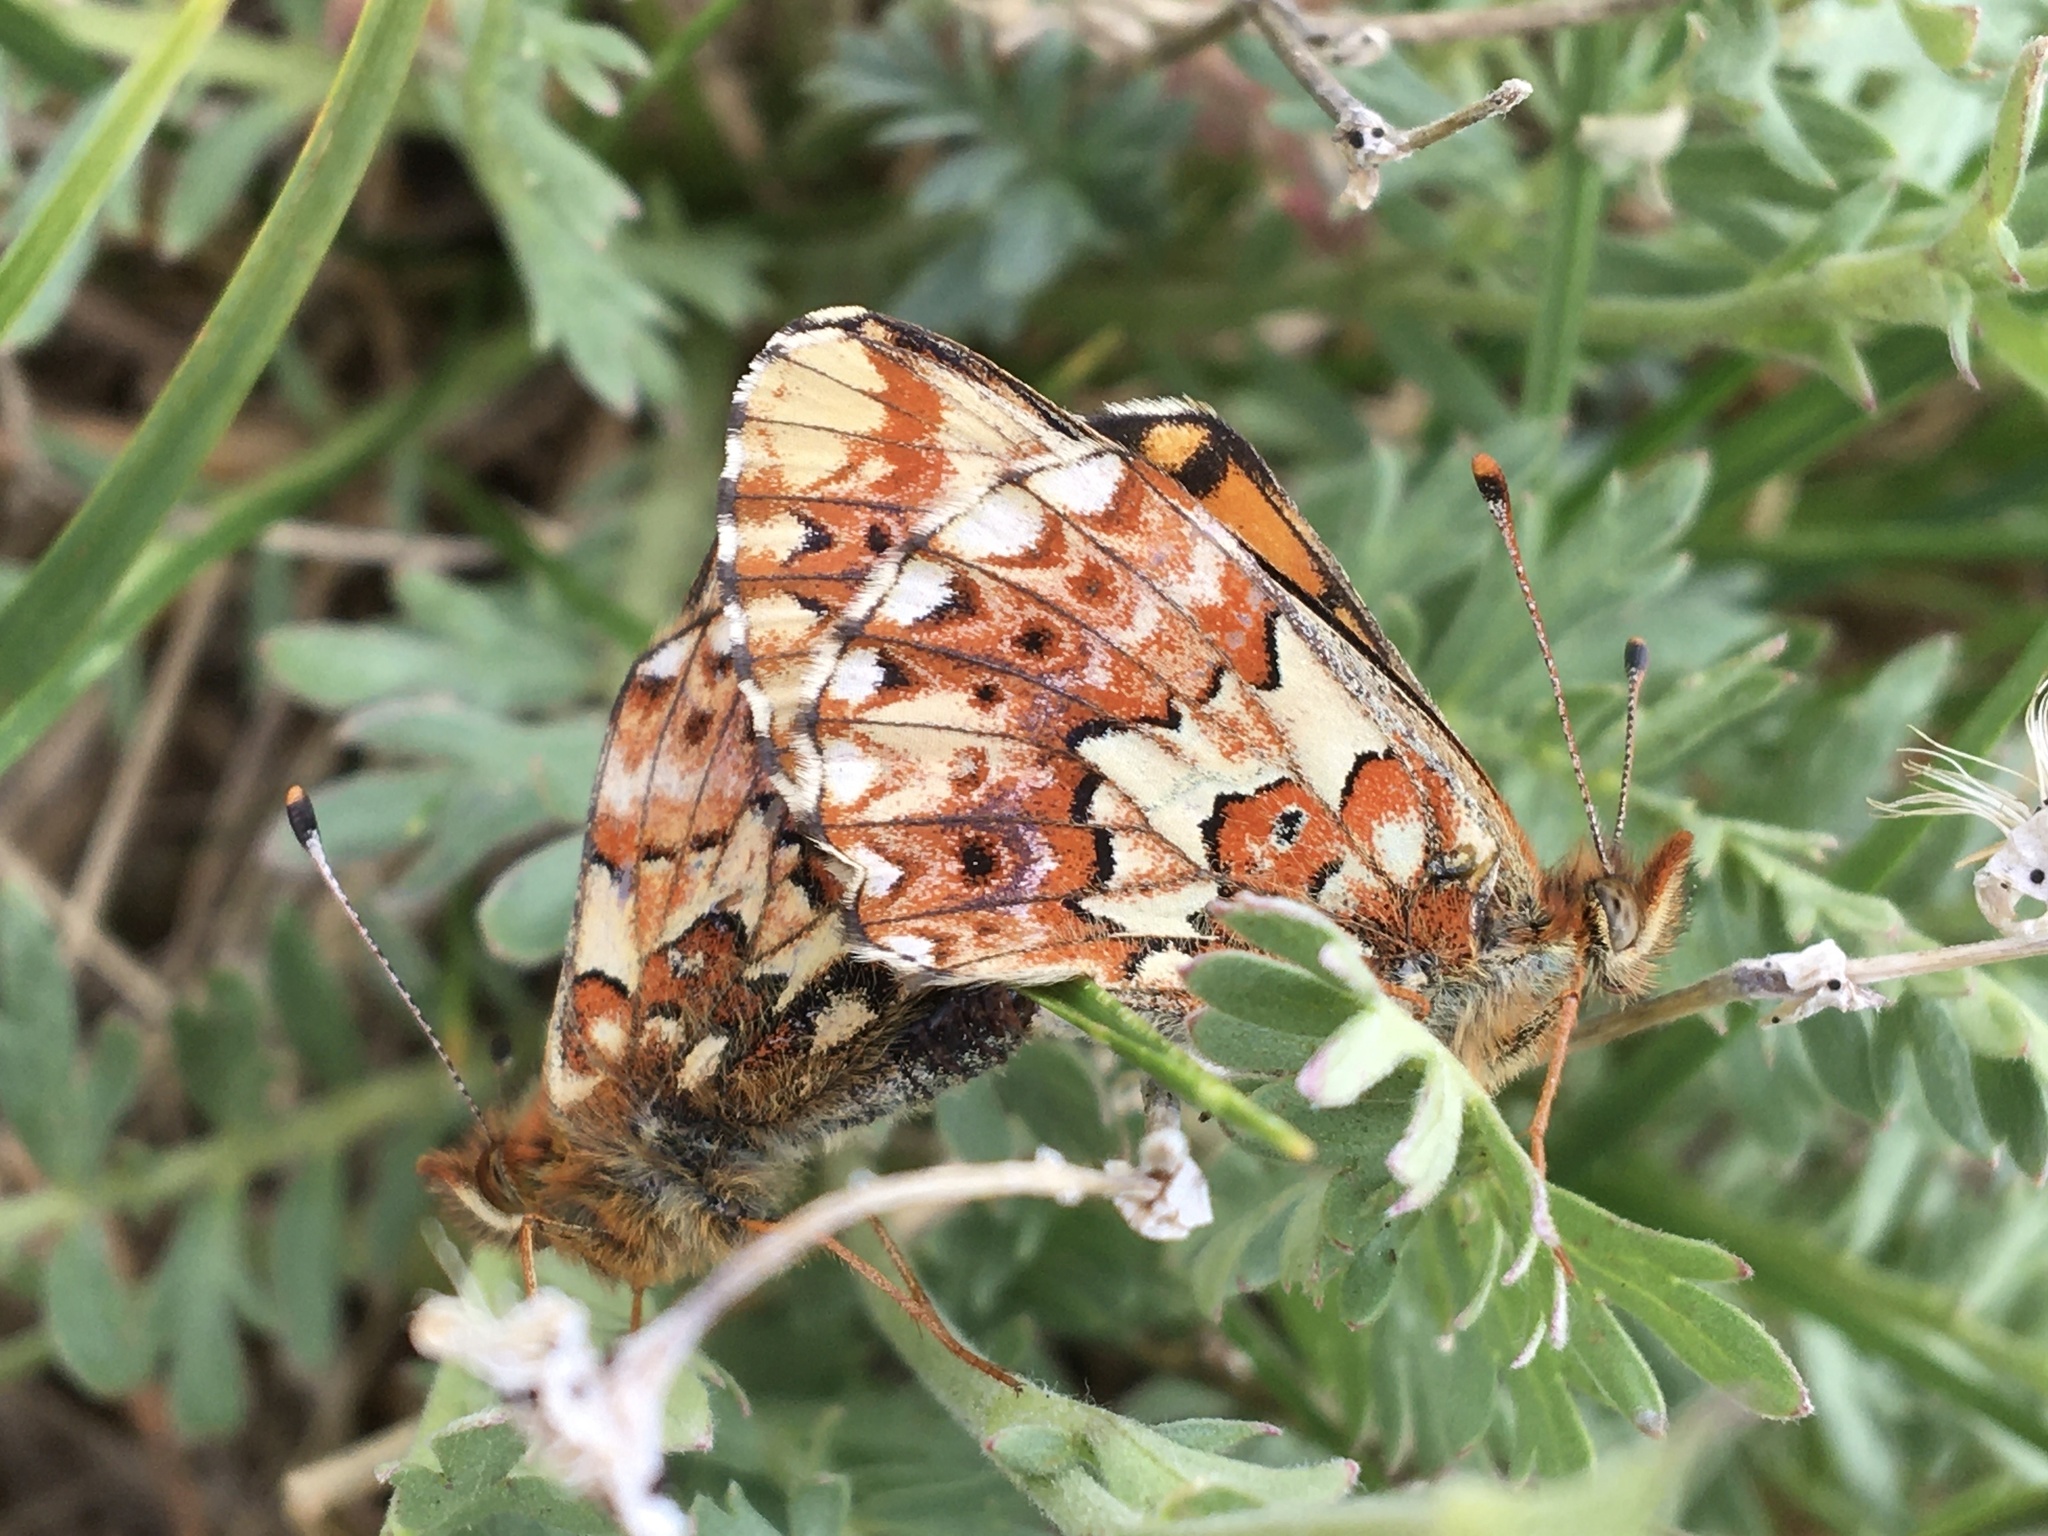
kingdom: Animalia
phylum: Arthropoda
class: Insecta
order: Lepidoptera
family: Nymphalidae
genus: Boloria
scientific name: Boloria chariclea
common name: Arctic fritillary
